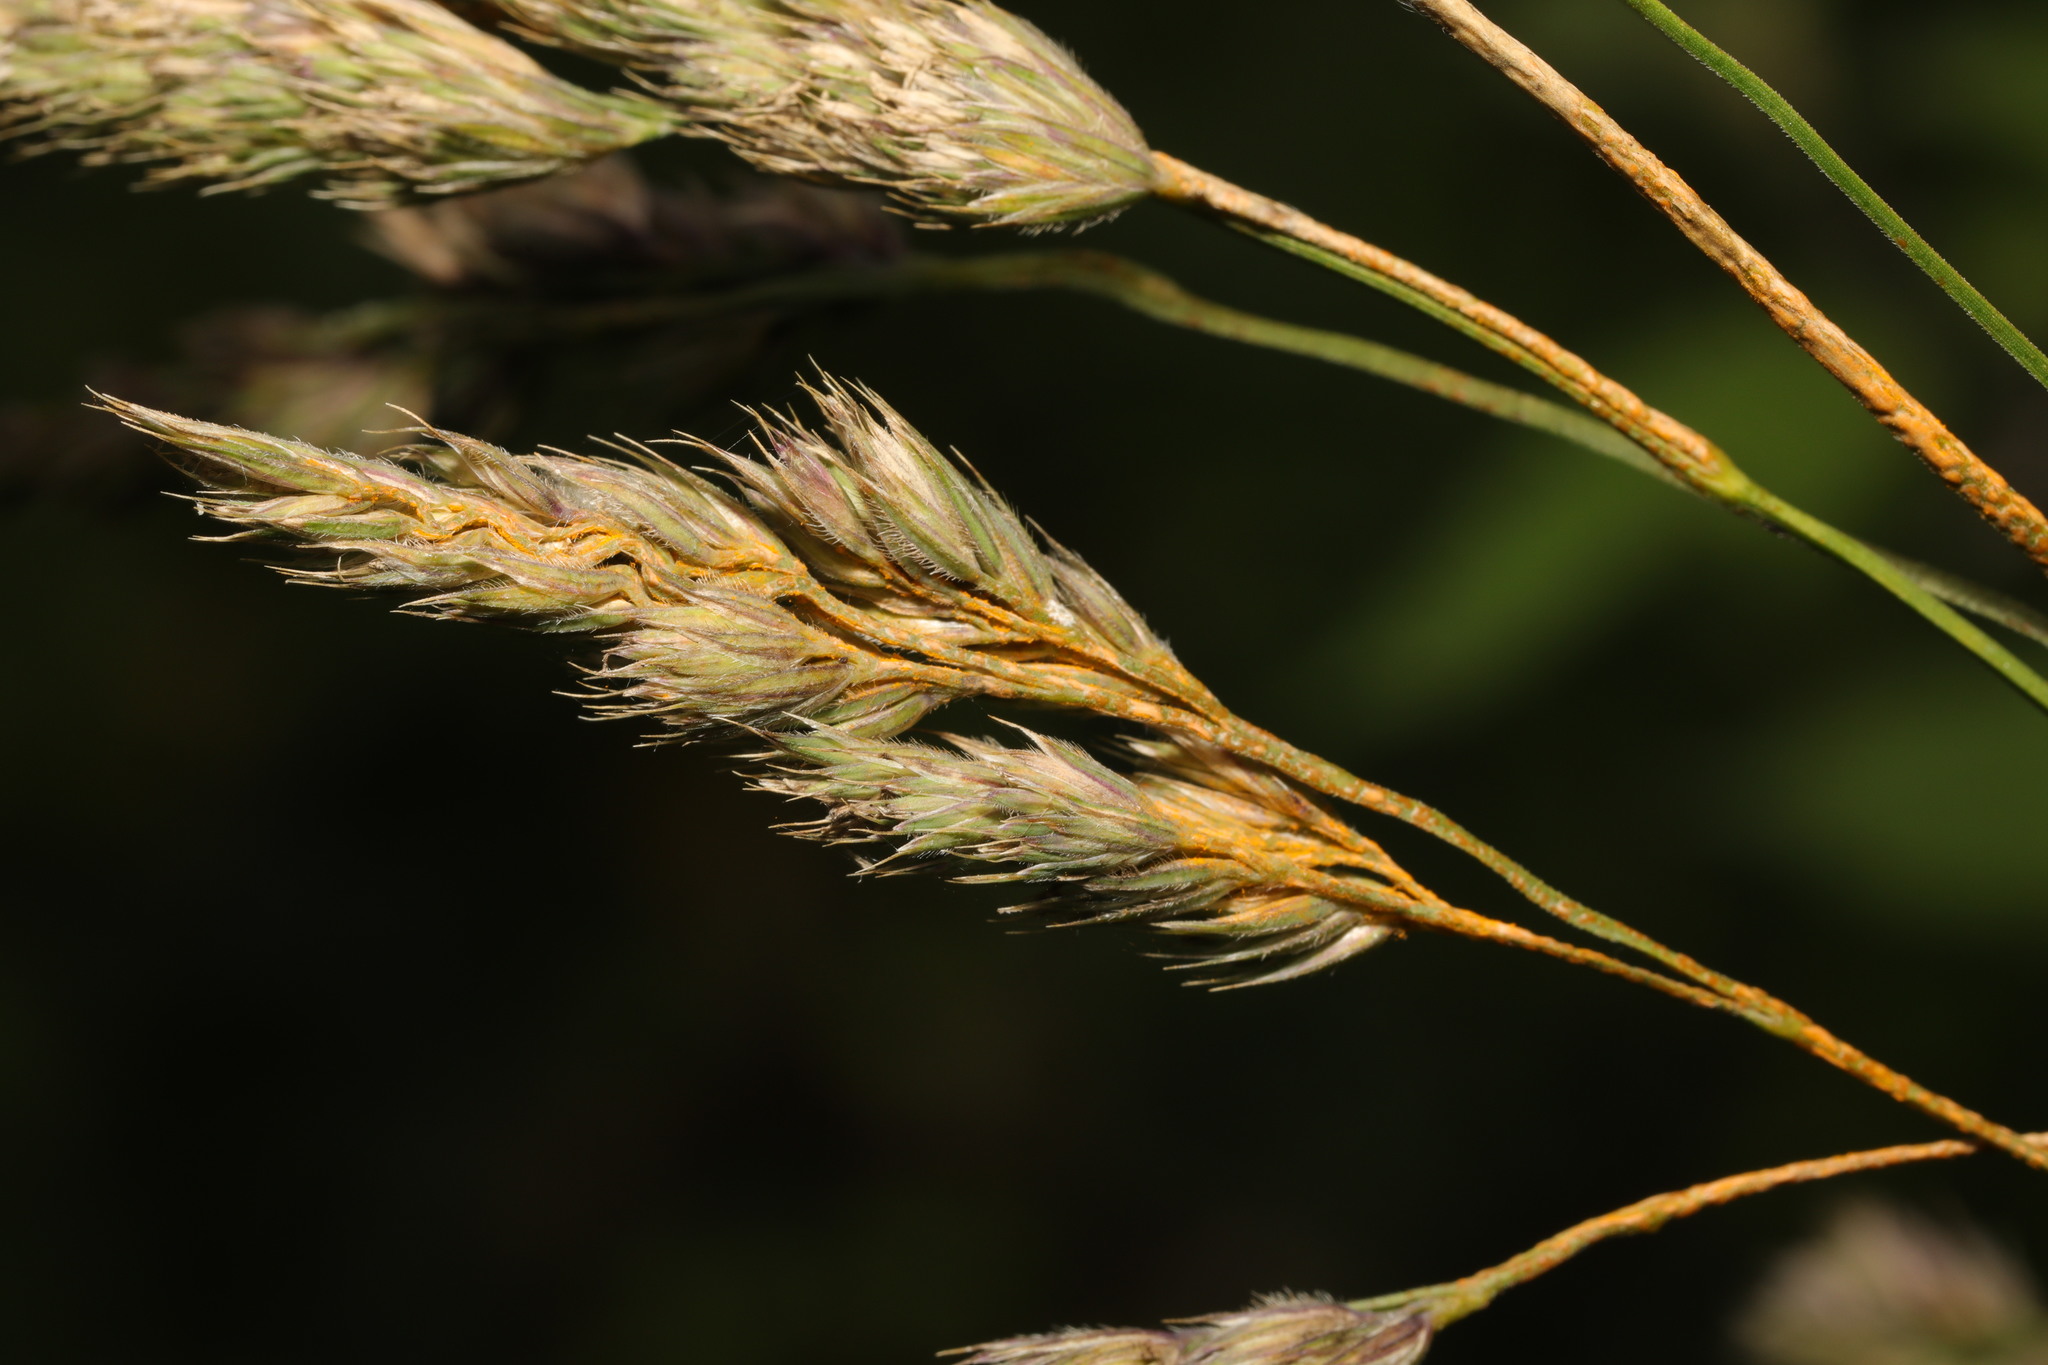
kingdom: Plantae
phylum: Tracheophyta
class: Liliopsida
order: Poales
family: Poaceae
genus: Dactylis
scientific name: Dactylis glomerata
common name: Orchardgrass
